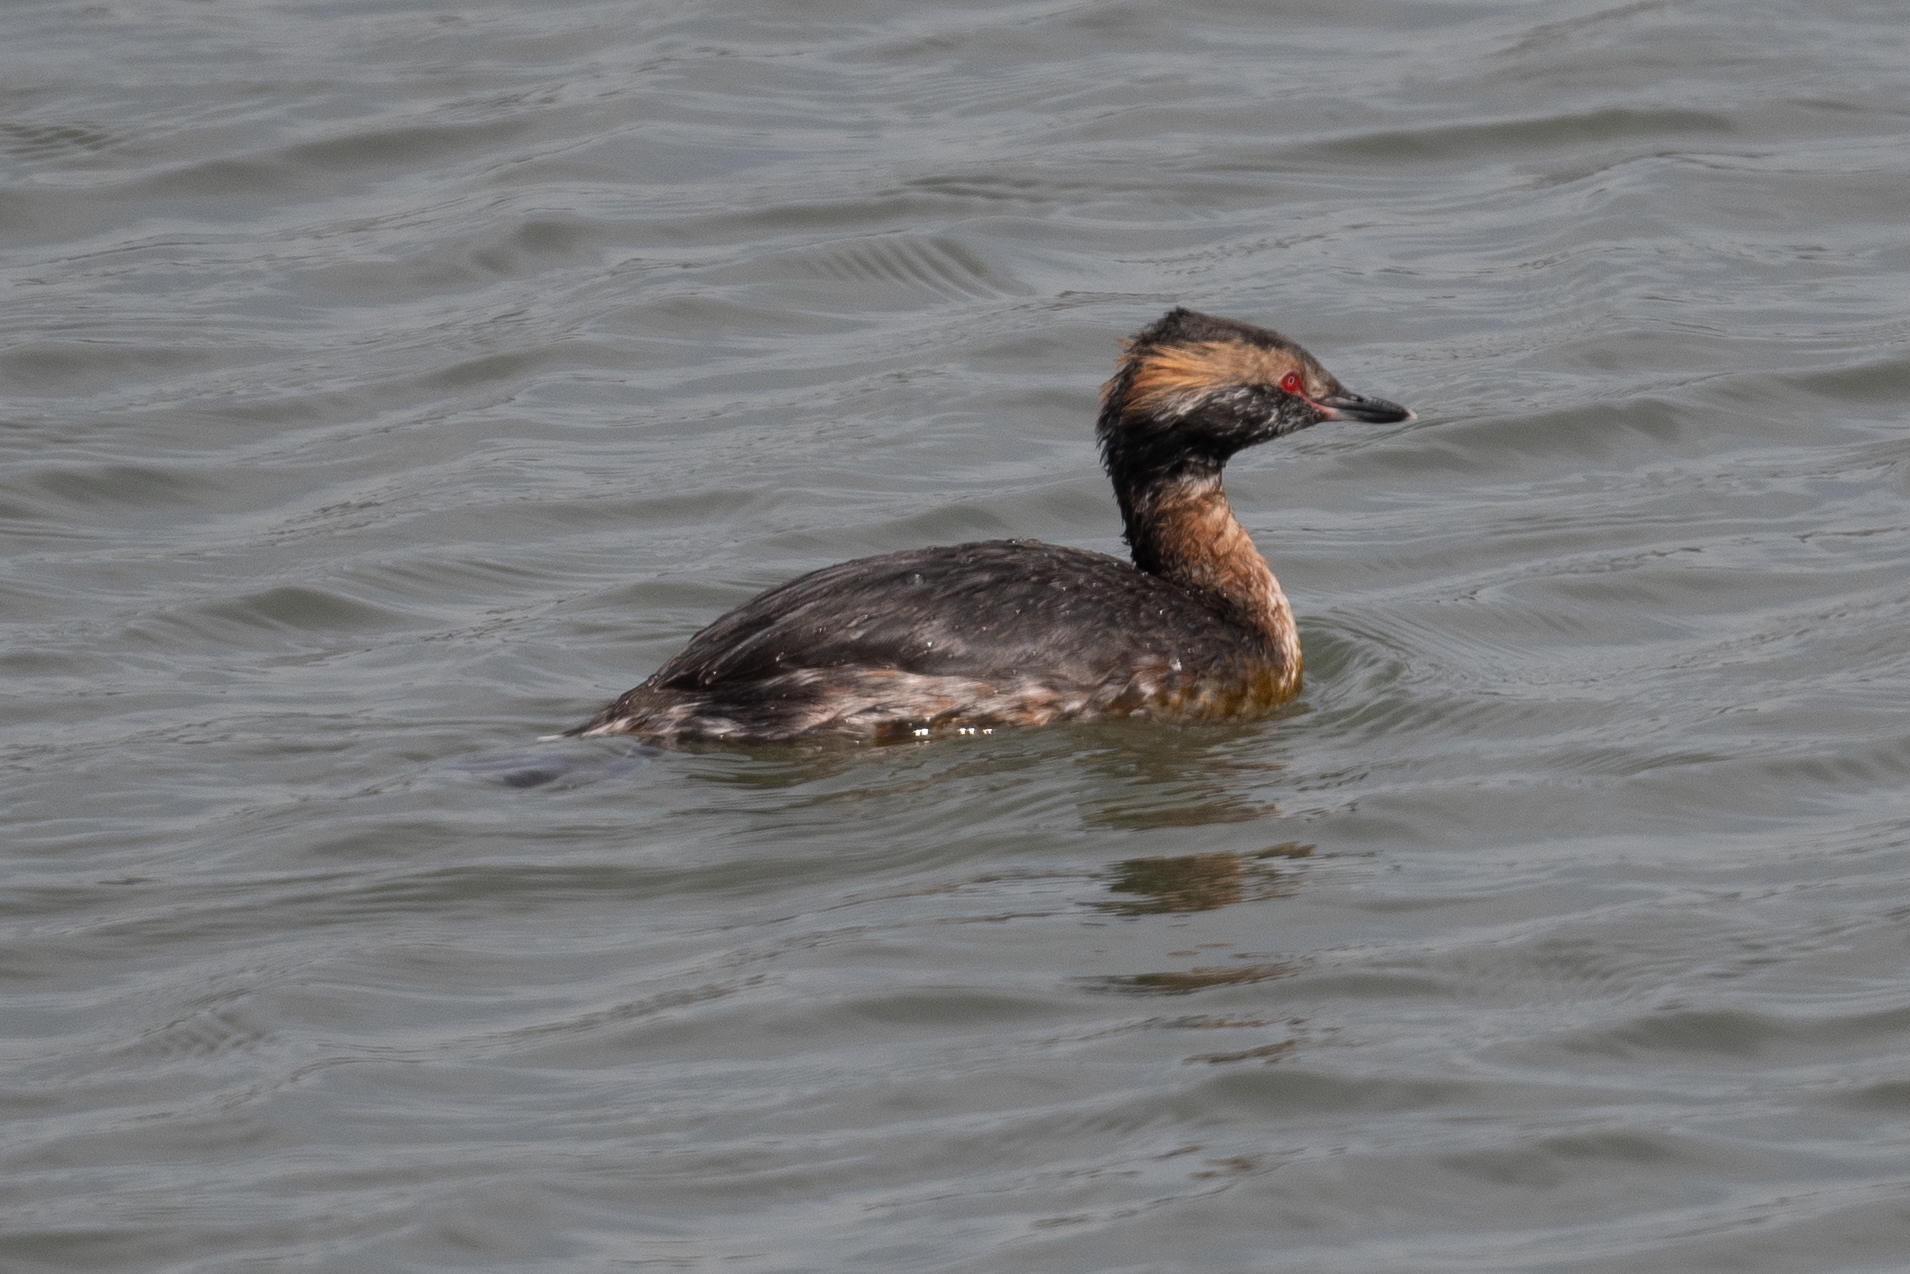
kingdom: Animalia
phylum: Chordata
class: Aves
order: Podicipediformes
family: Podicipedidae
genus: Podiceps
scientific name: Podiceps auritus
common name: Horned grebe
